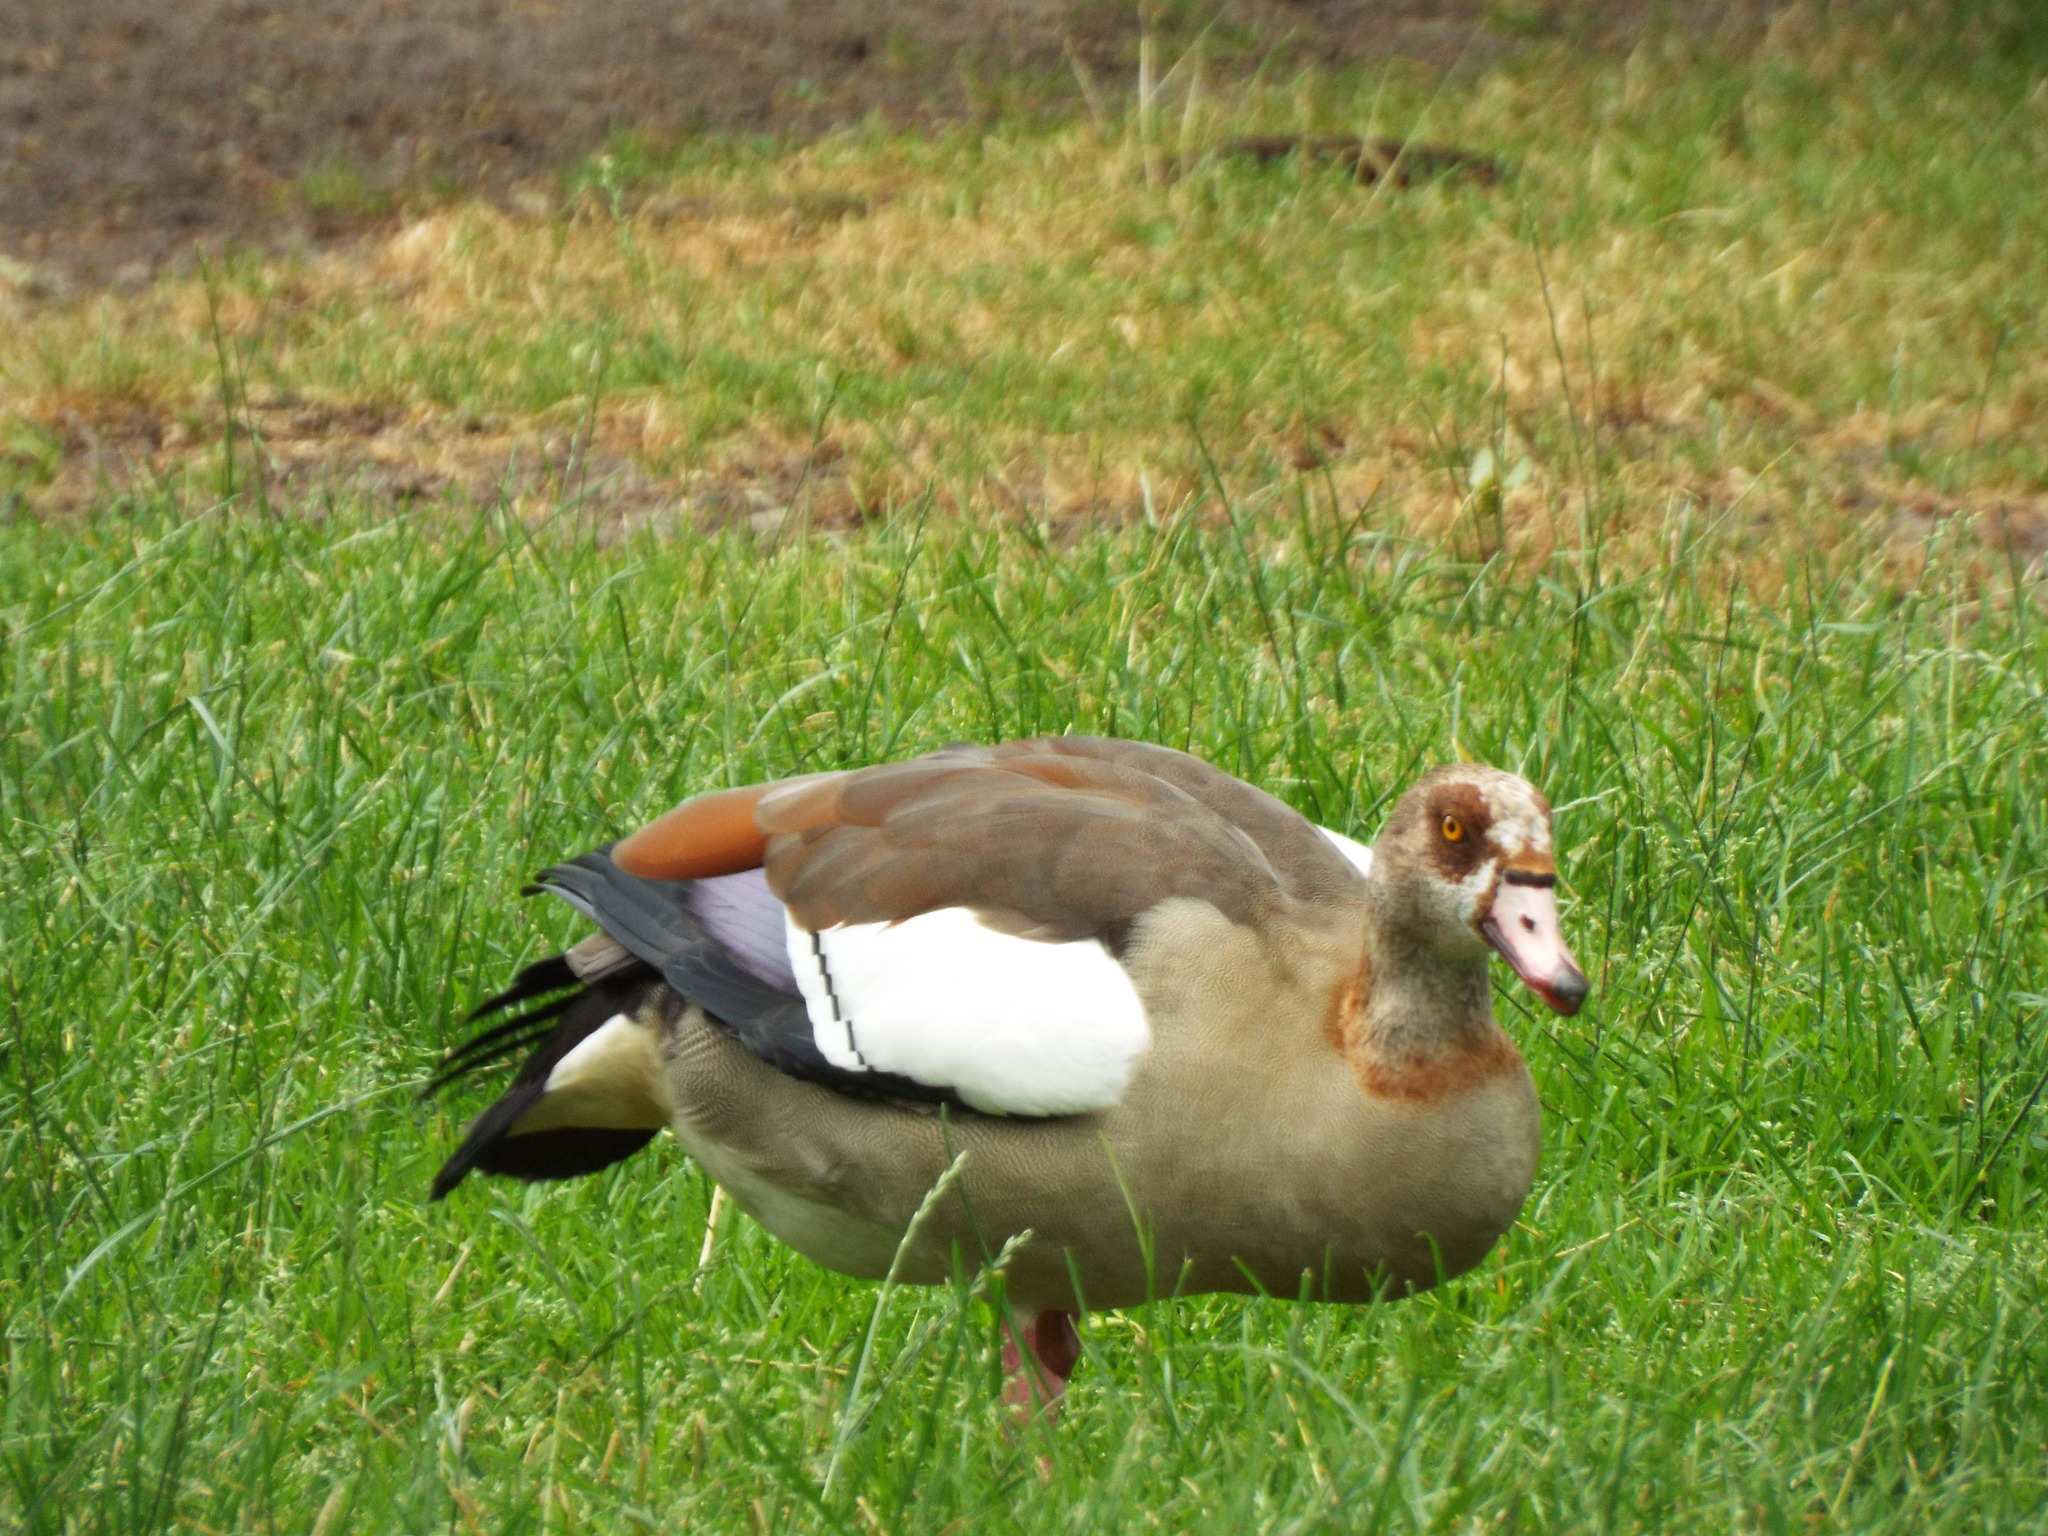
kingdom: Animalia
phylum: Chordata
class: Aves
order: Anseriformes
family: Anatidae
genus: Alopochen
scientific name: Alopochen aegyptiaca
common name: Egyptian goose
